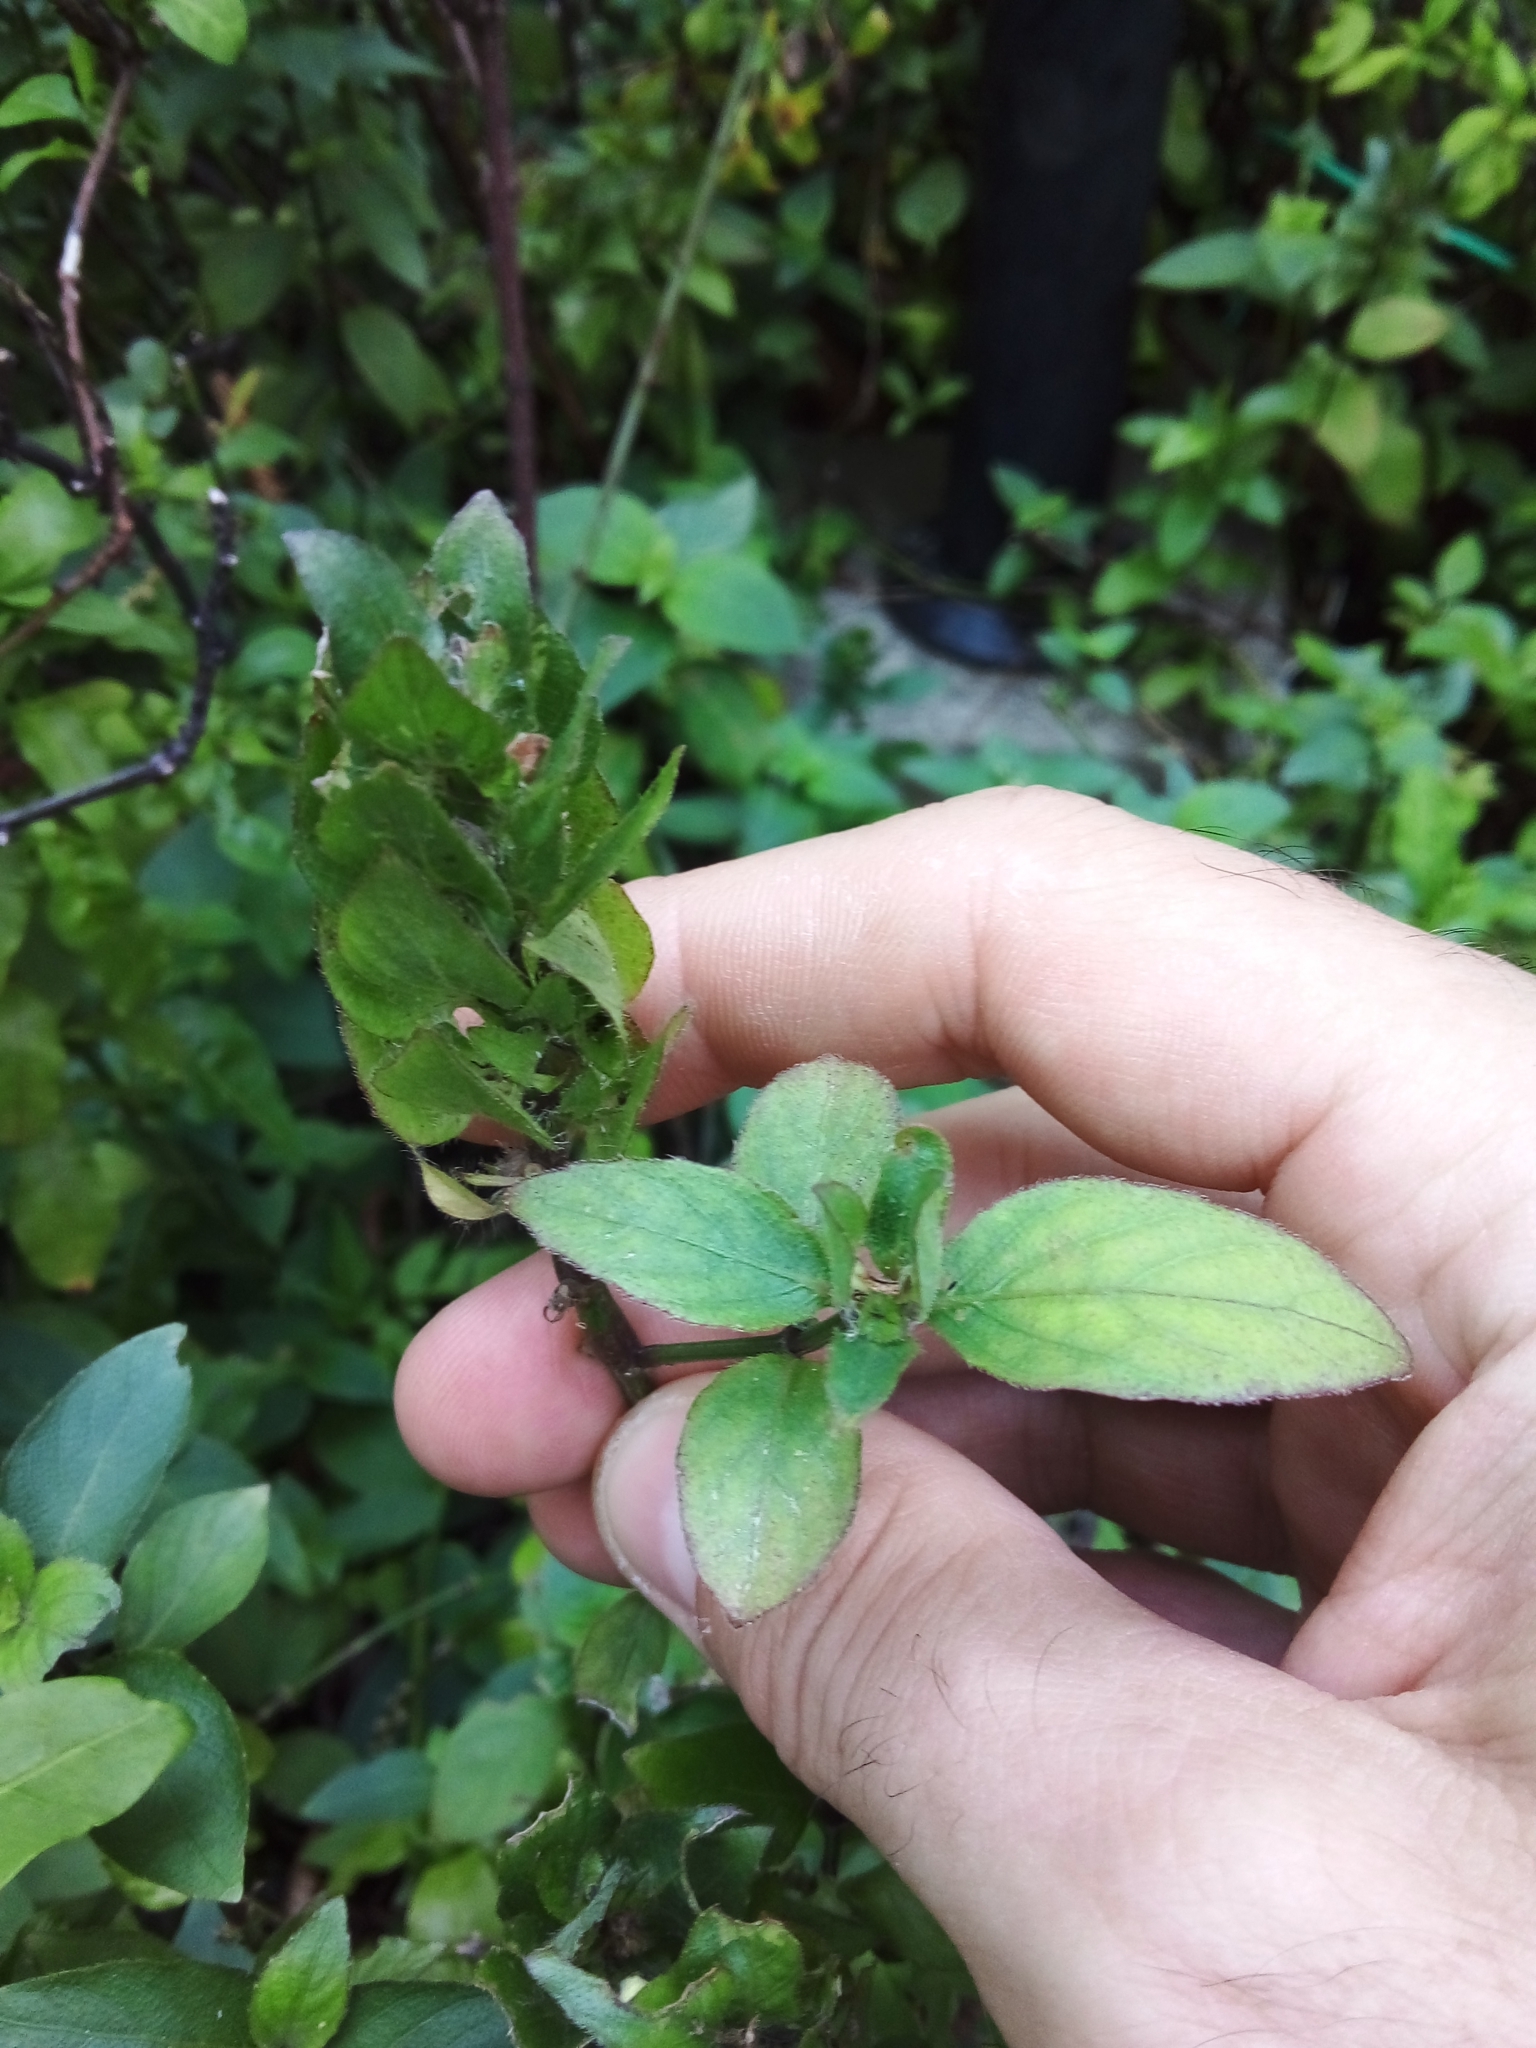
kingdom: Plantae
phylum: Tracheophyta
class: Magnoliopsida
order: Lamiales
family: Acanthaceae
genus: Ruellia
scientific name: Ruellia blechum
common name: Browne's blechum
